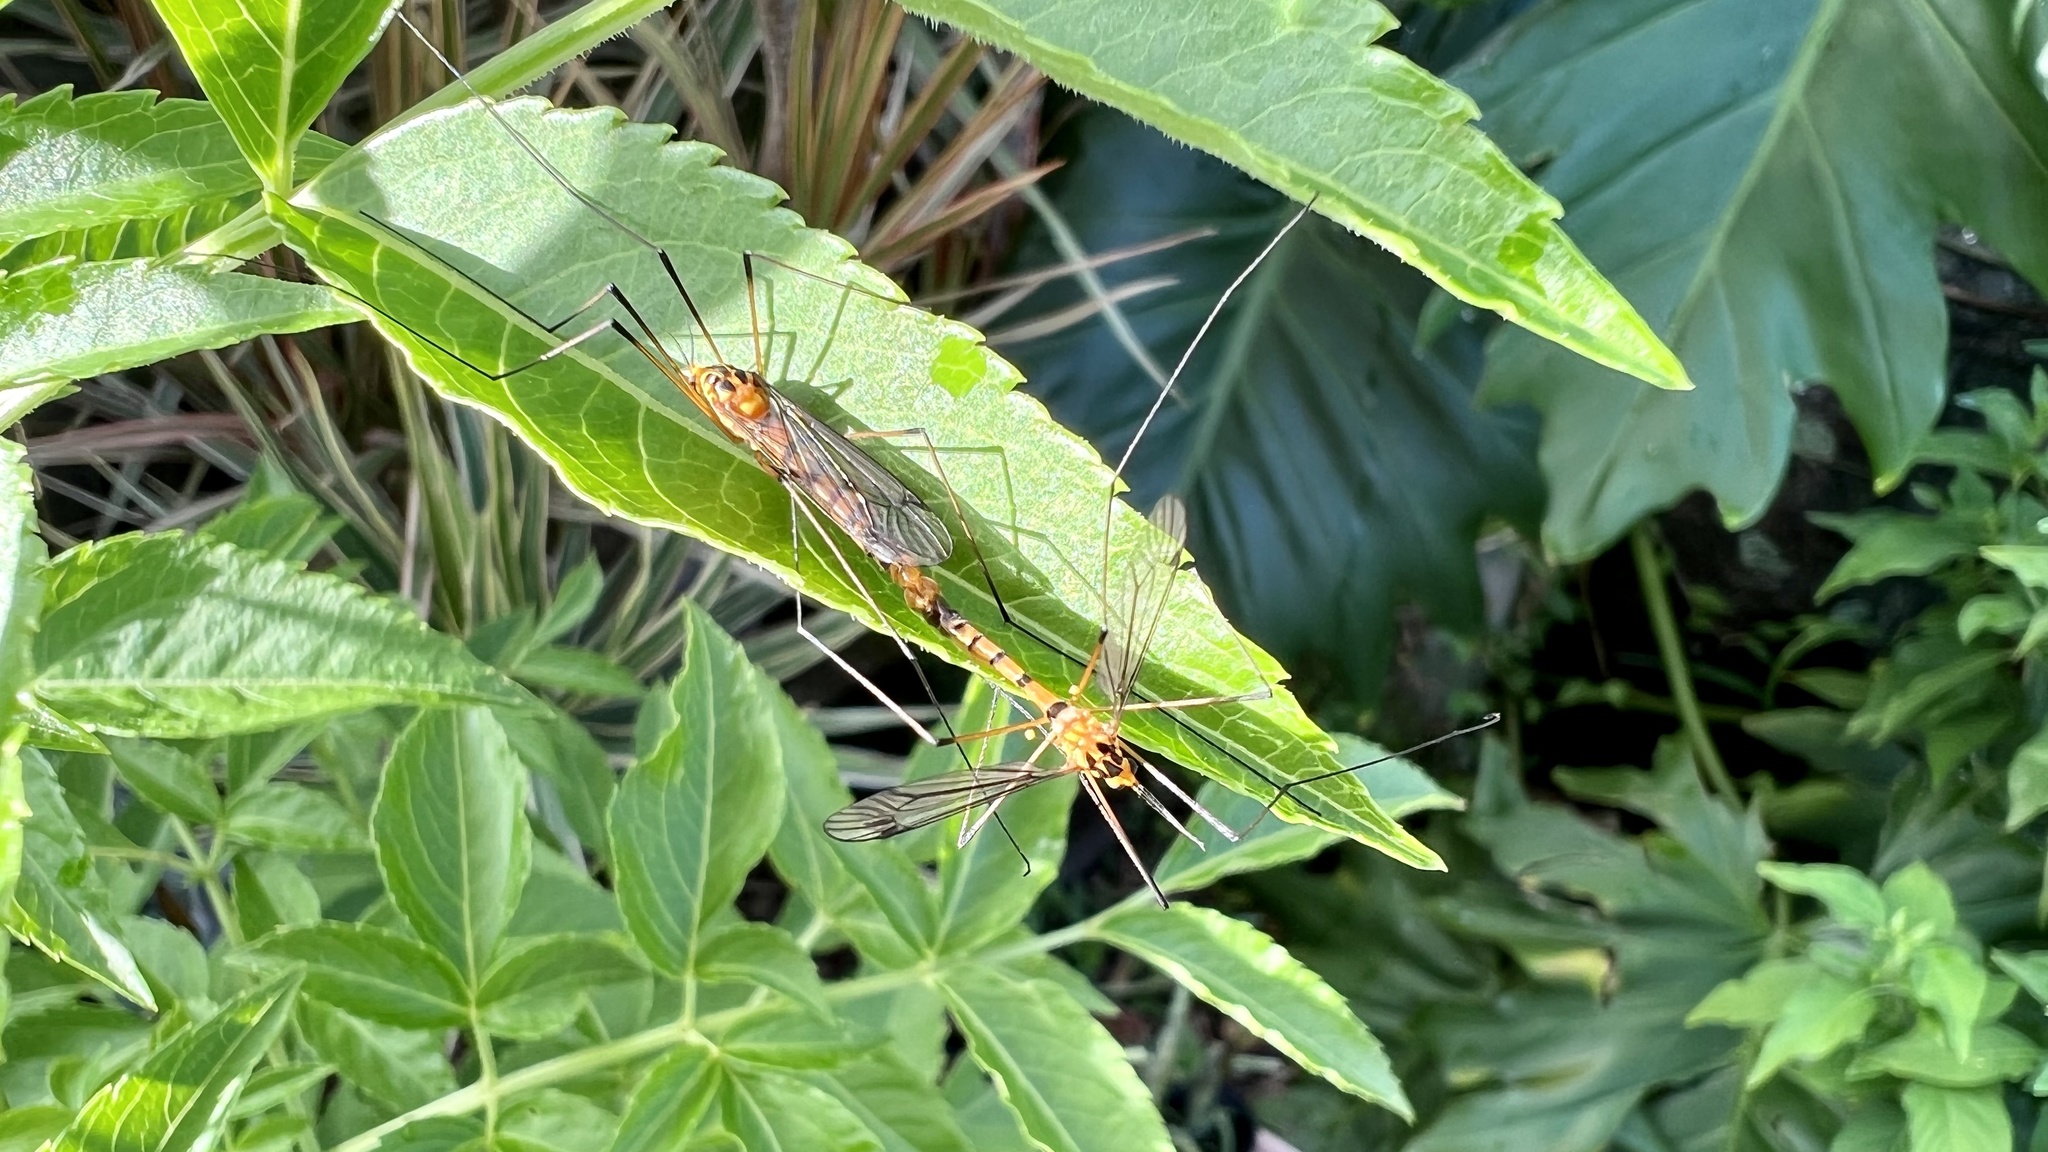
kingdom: Animalia
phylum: Arthropoda
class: Insecta
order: Diptera
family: Tipulidae
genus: Nephrotoma
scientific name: Nephrotoma australasiae
